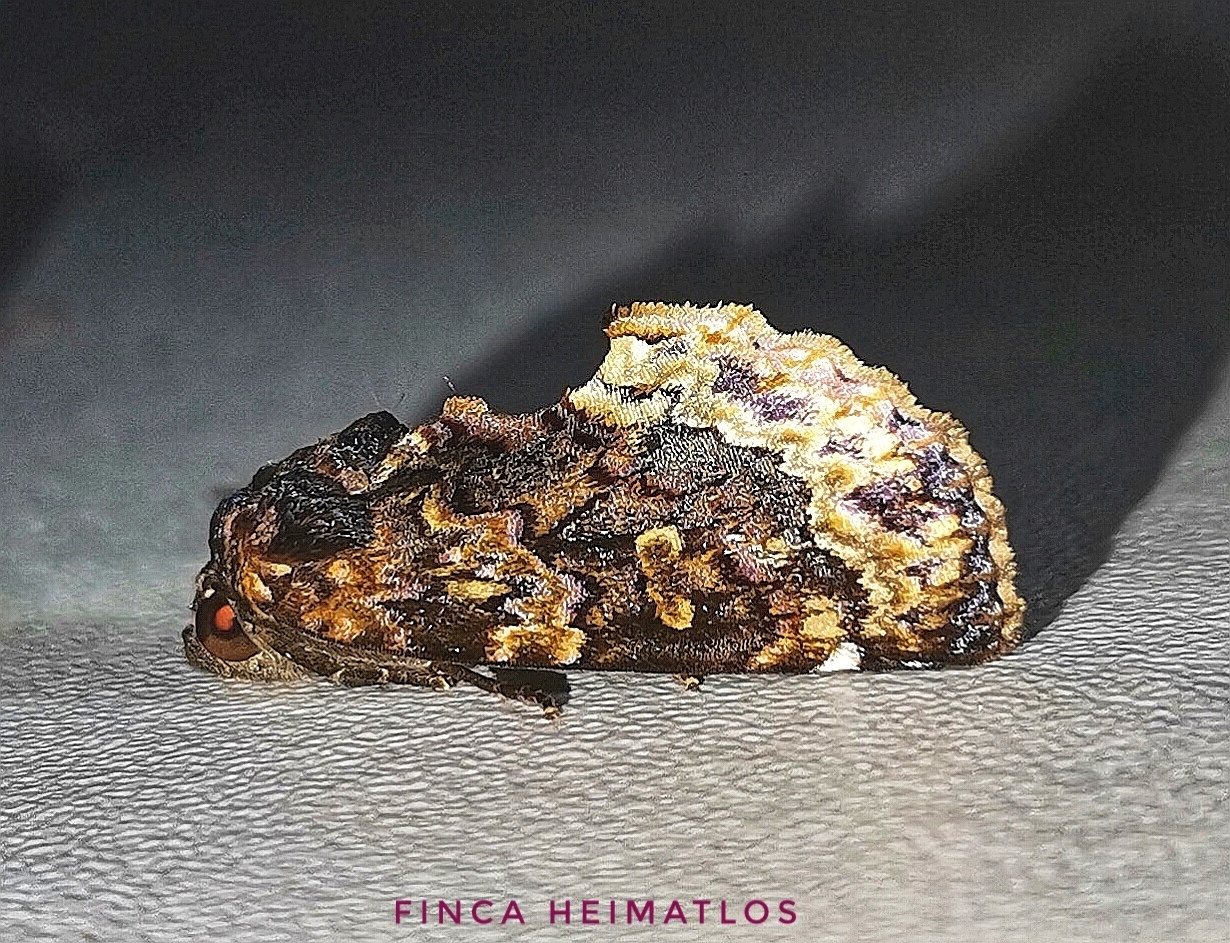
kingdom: Animalia
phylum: Arthropoda
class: Insecta
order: Lepidoptera
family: Erebidae
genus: Gonodonta
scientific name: Gonodonta uxor
